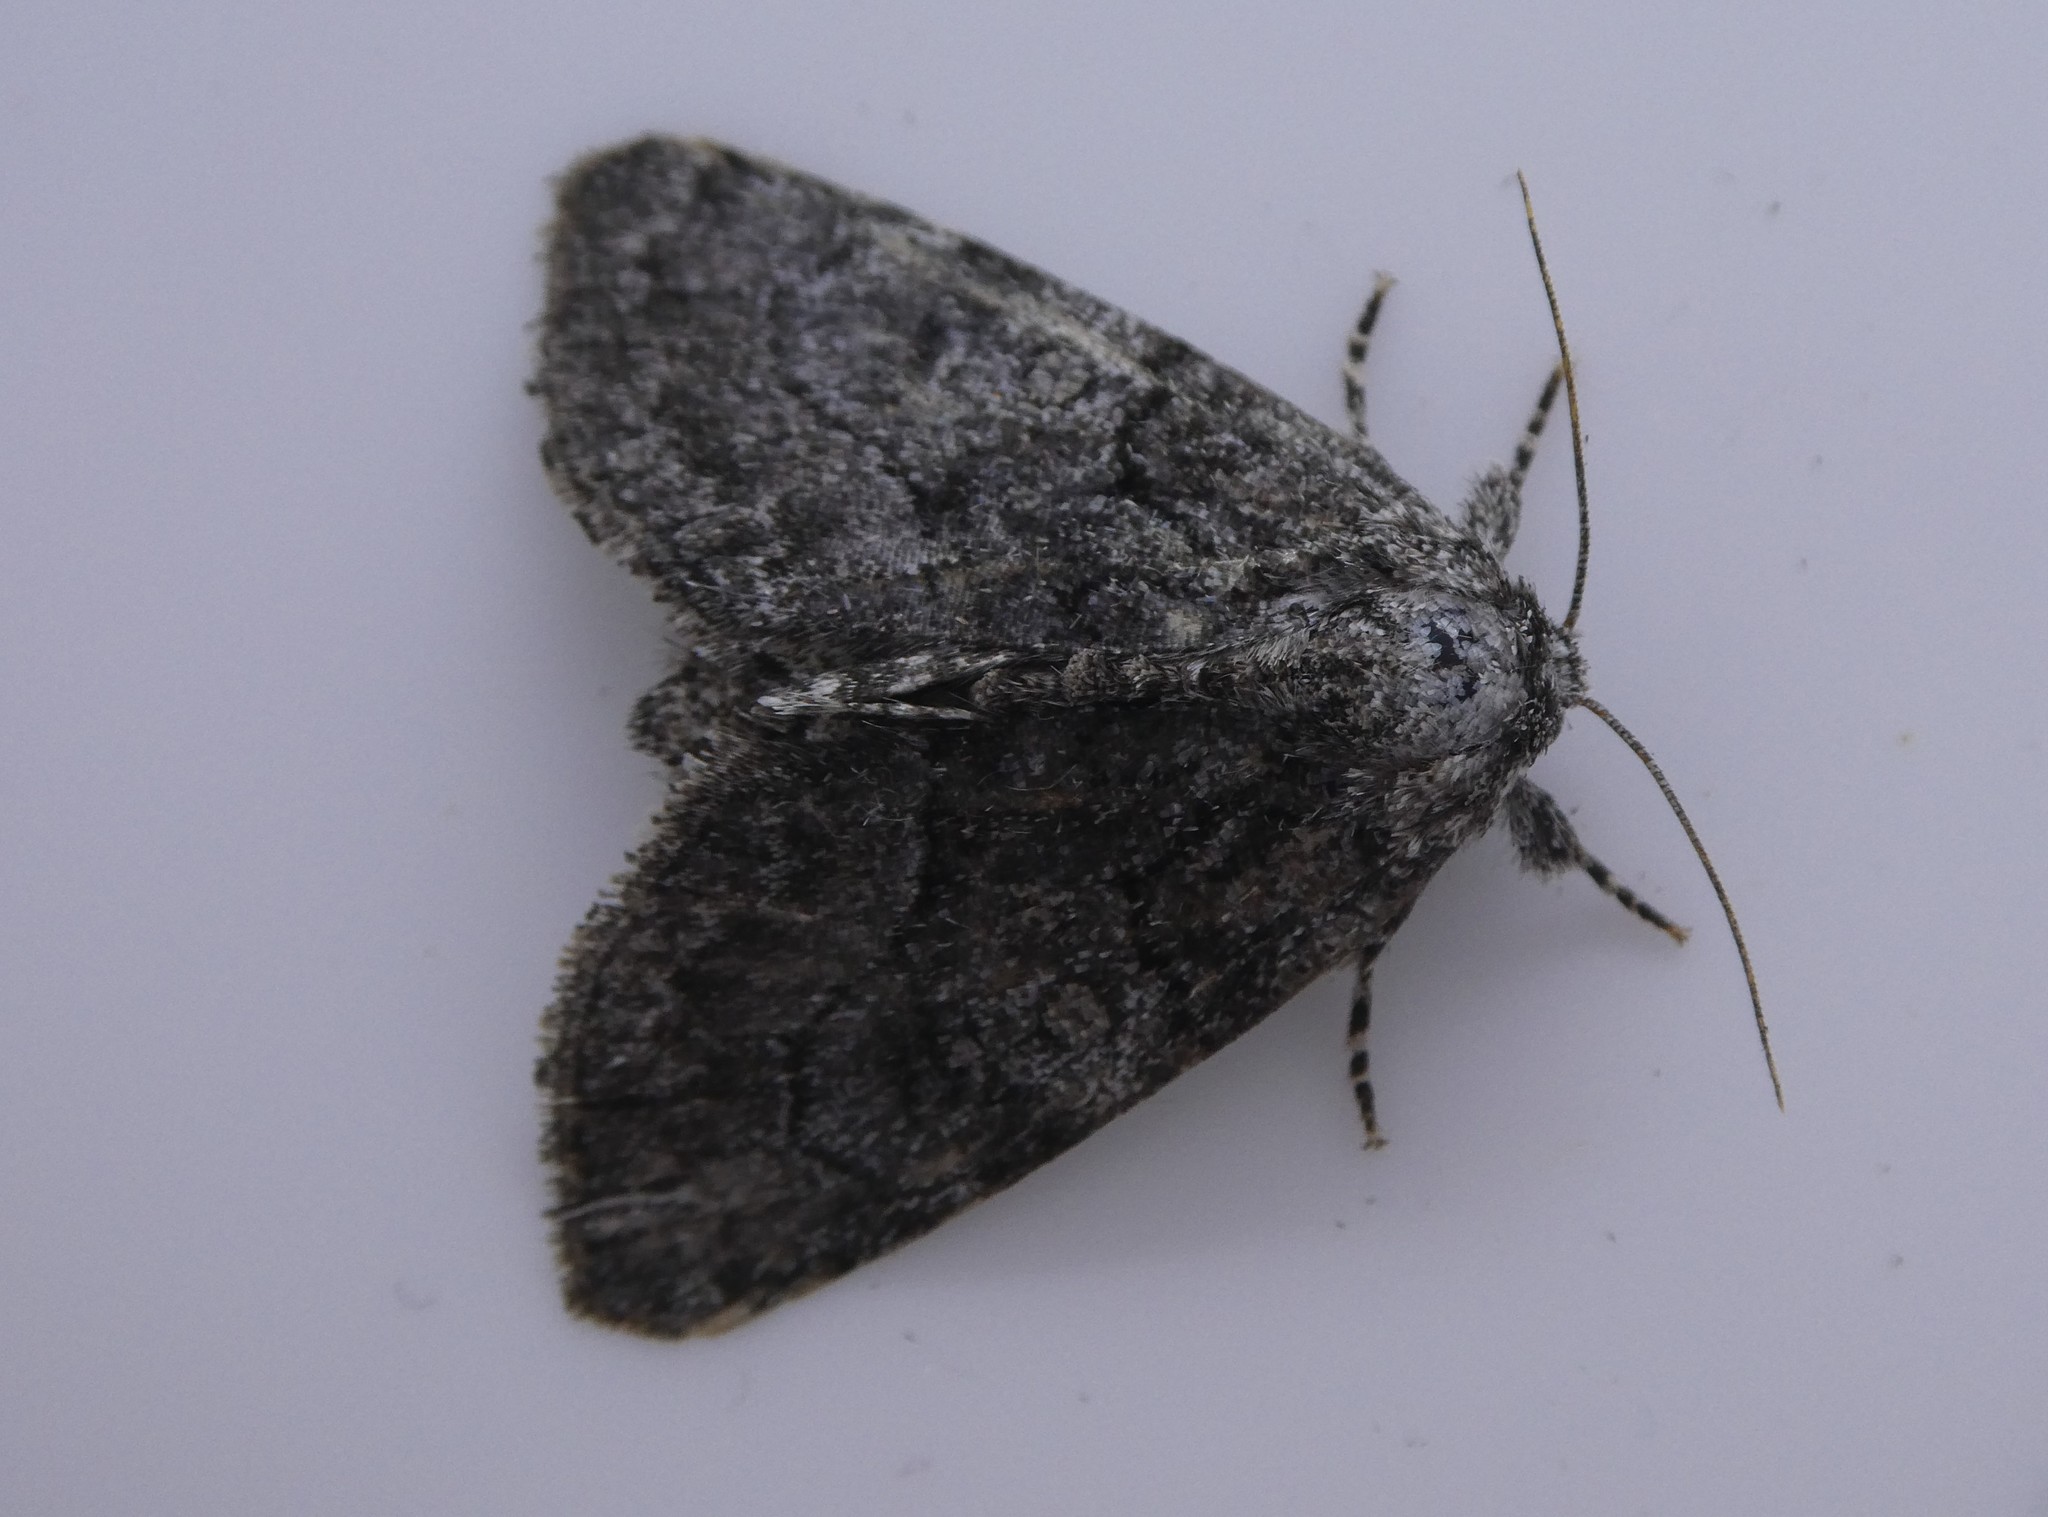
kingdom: Animalia
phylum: Arthropoda
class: Insecta
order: Lepidoptera
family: Noctuidae
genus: Raphia
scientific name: Raphia frater
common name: Brother
